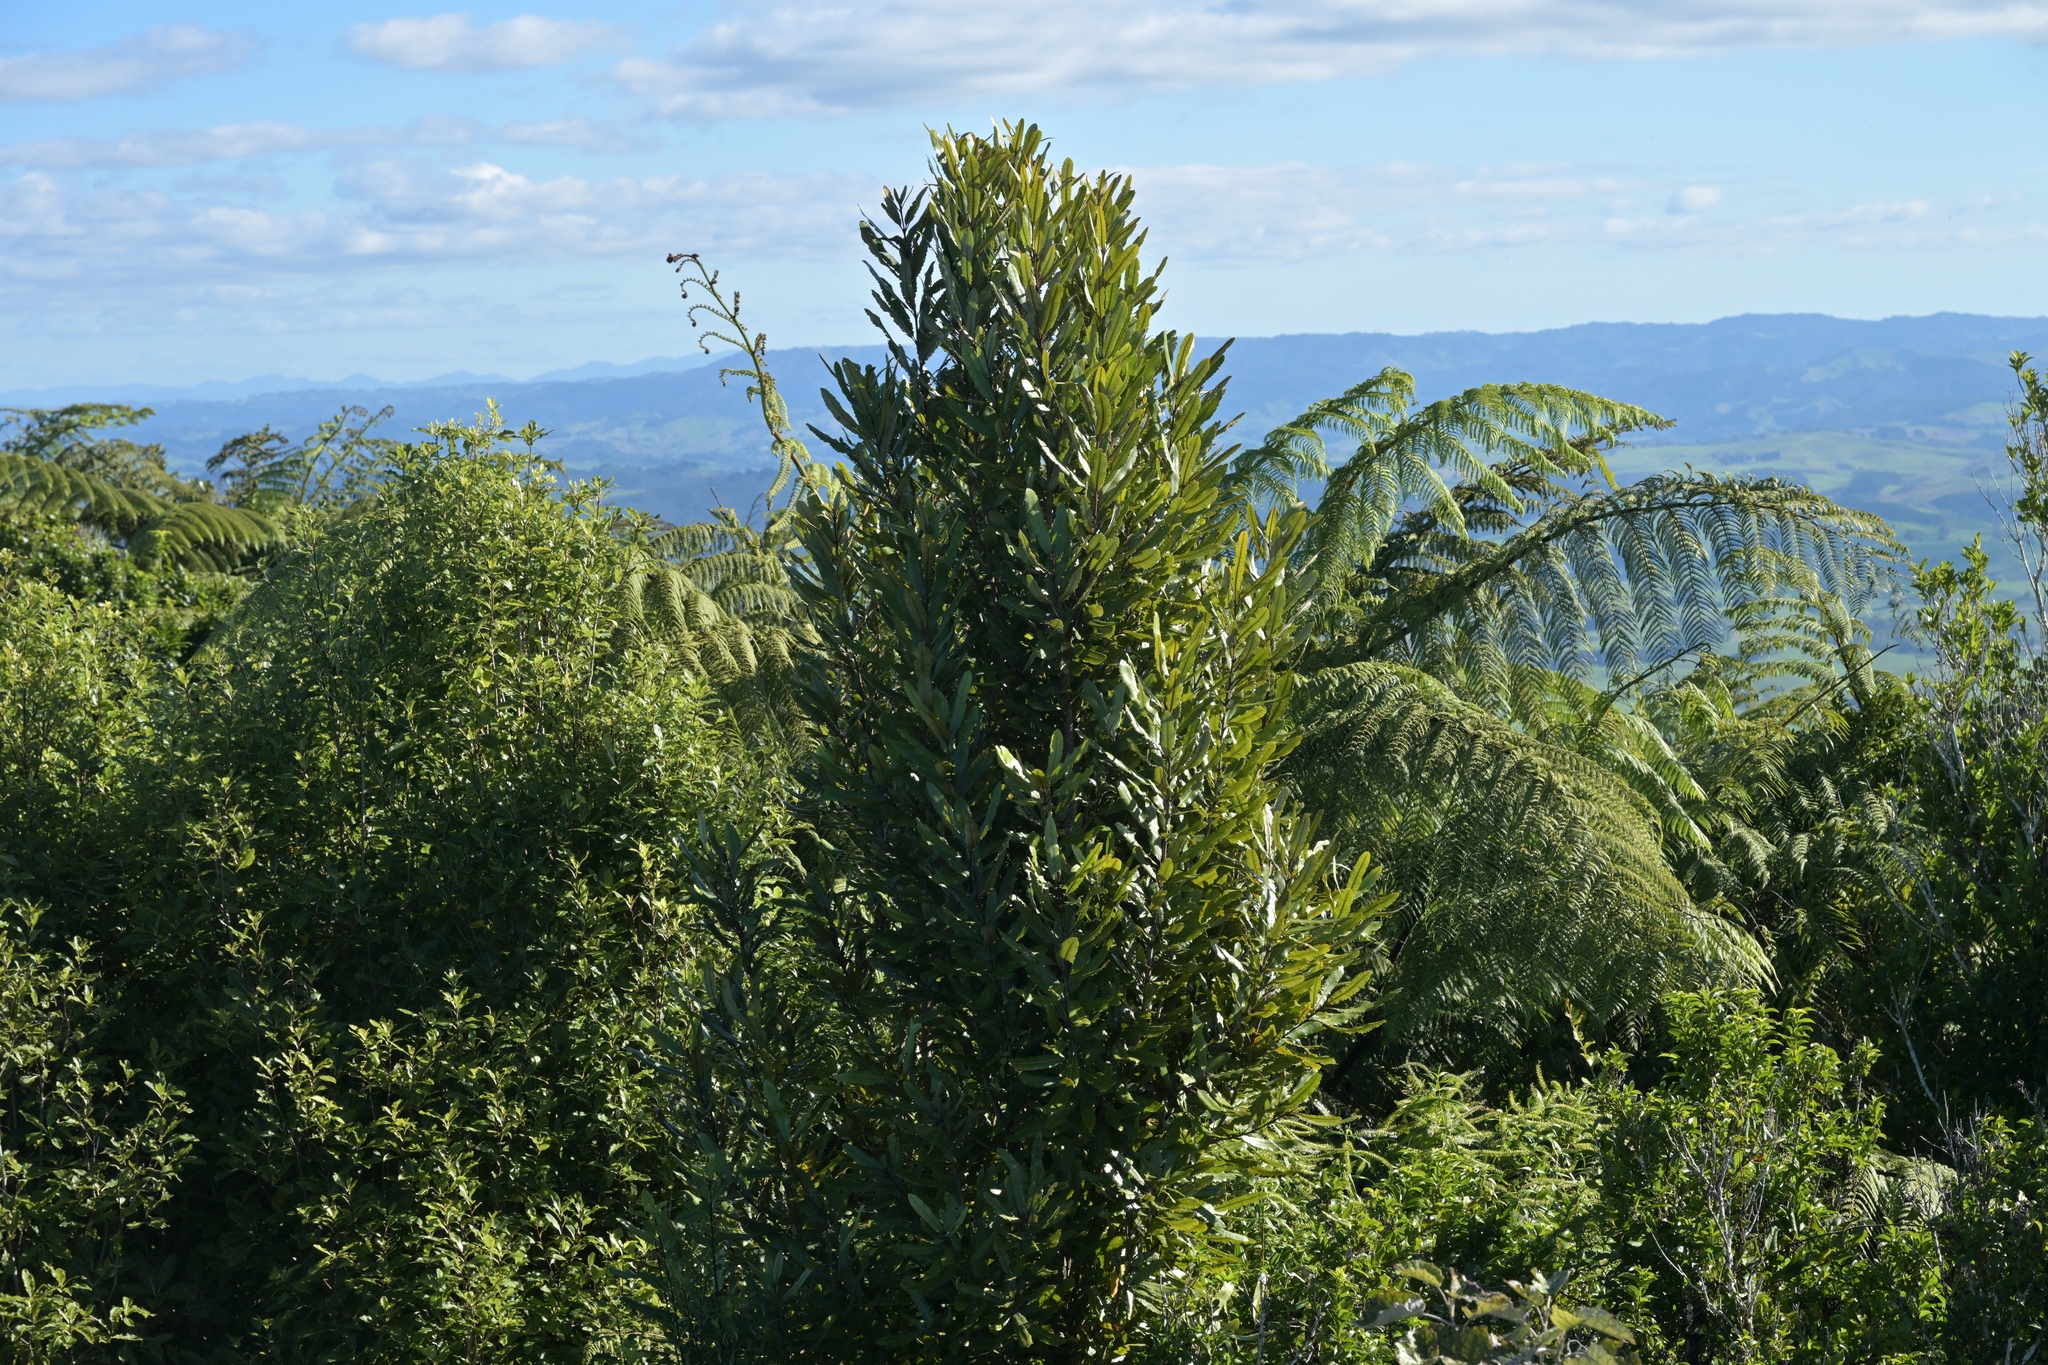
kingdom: Plantae
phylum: Tracheophyta
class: Magnoliopsida
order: Proteales
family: Proteaceae
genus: Knightia
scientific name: Knightia excelsa
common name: New zealand-honeysuckle
